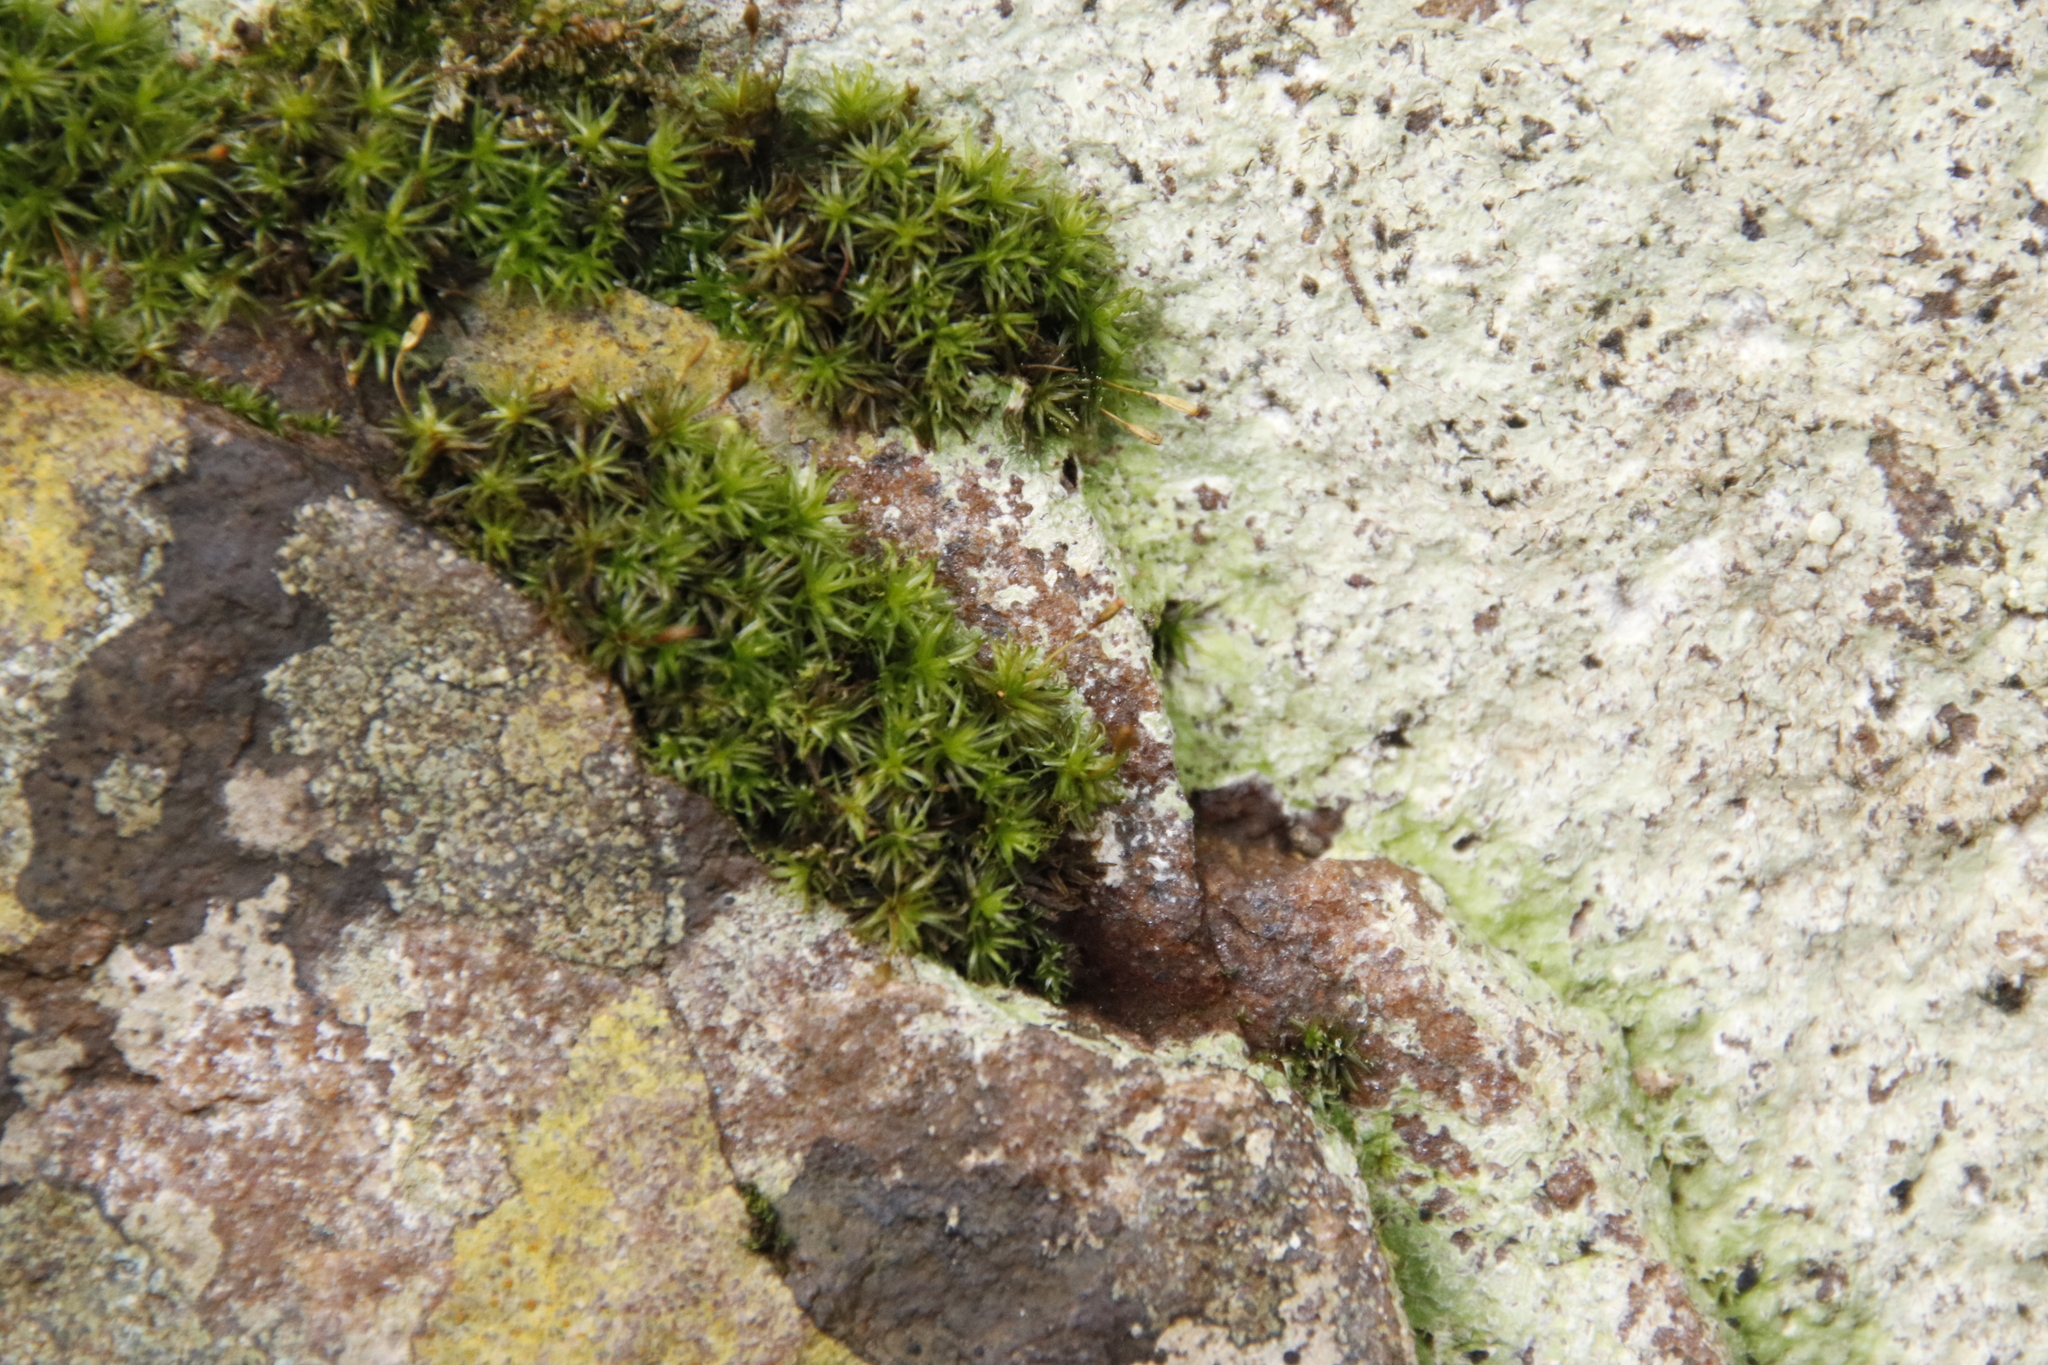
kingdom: Plantae
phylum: Bryophyta
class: Bryopsida
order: Grimmiales
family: Ptychomitriaceae
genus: Ptychomitrium
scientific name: Ptychomitrium crispatum
